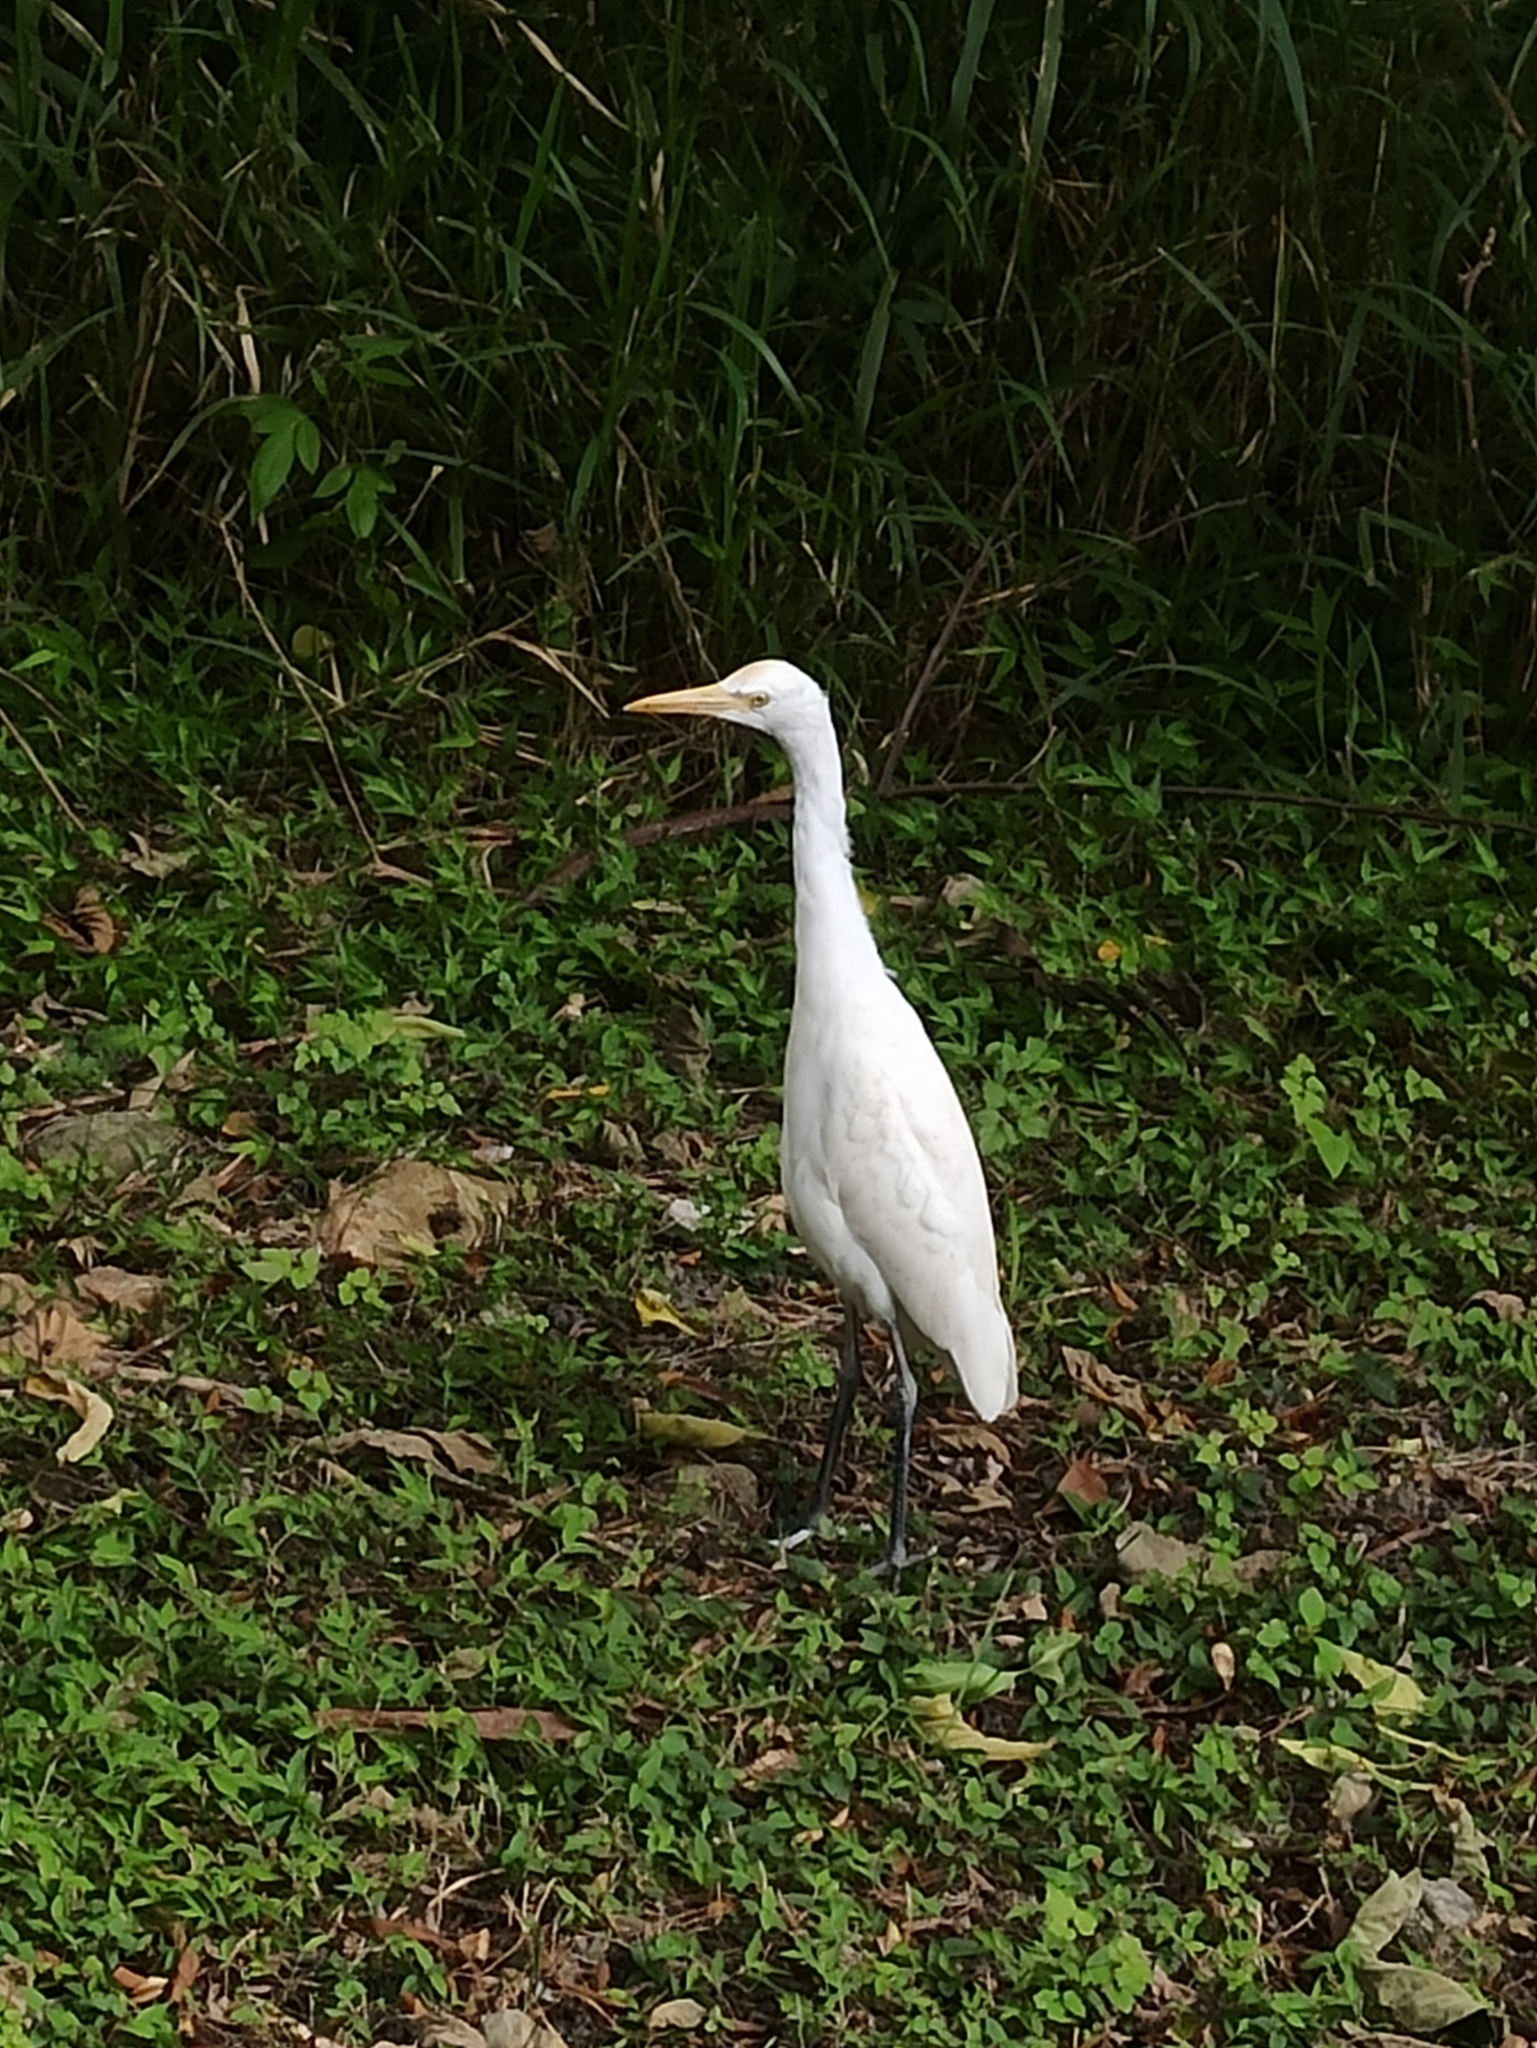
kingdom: Animalia
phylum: Chordata
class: Aves
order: Pelecaniformes
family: Ardeidae
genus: Bubulcus
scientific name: Bubulcus coromandus
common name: Eastern cattle egret
